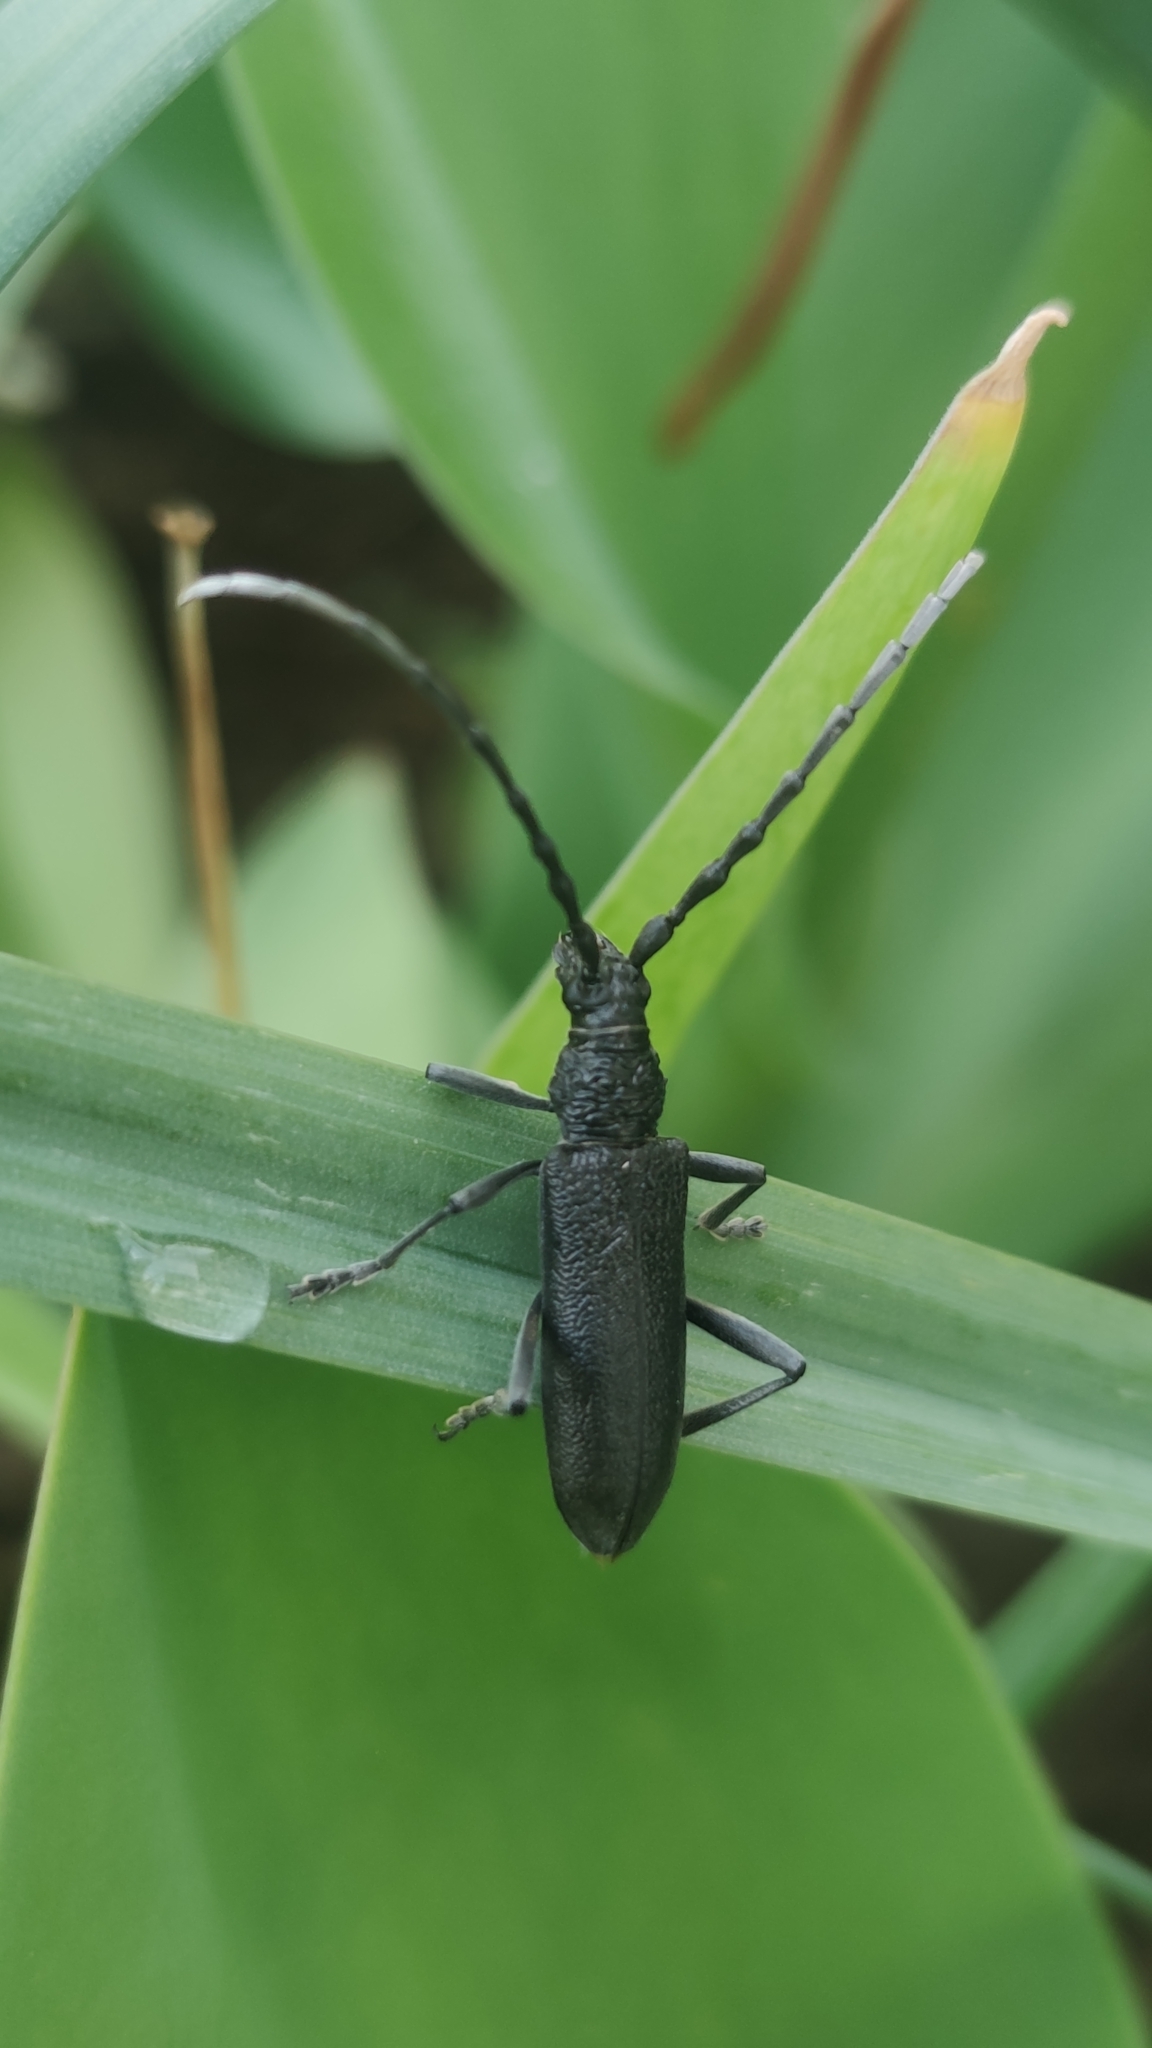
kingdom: Animalia
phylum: Arthropoda
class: Insecta
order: Coleoptera
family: Cerambycidae
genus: Cerambyx
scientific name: Cerambyx scopolii
